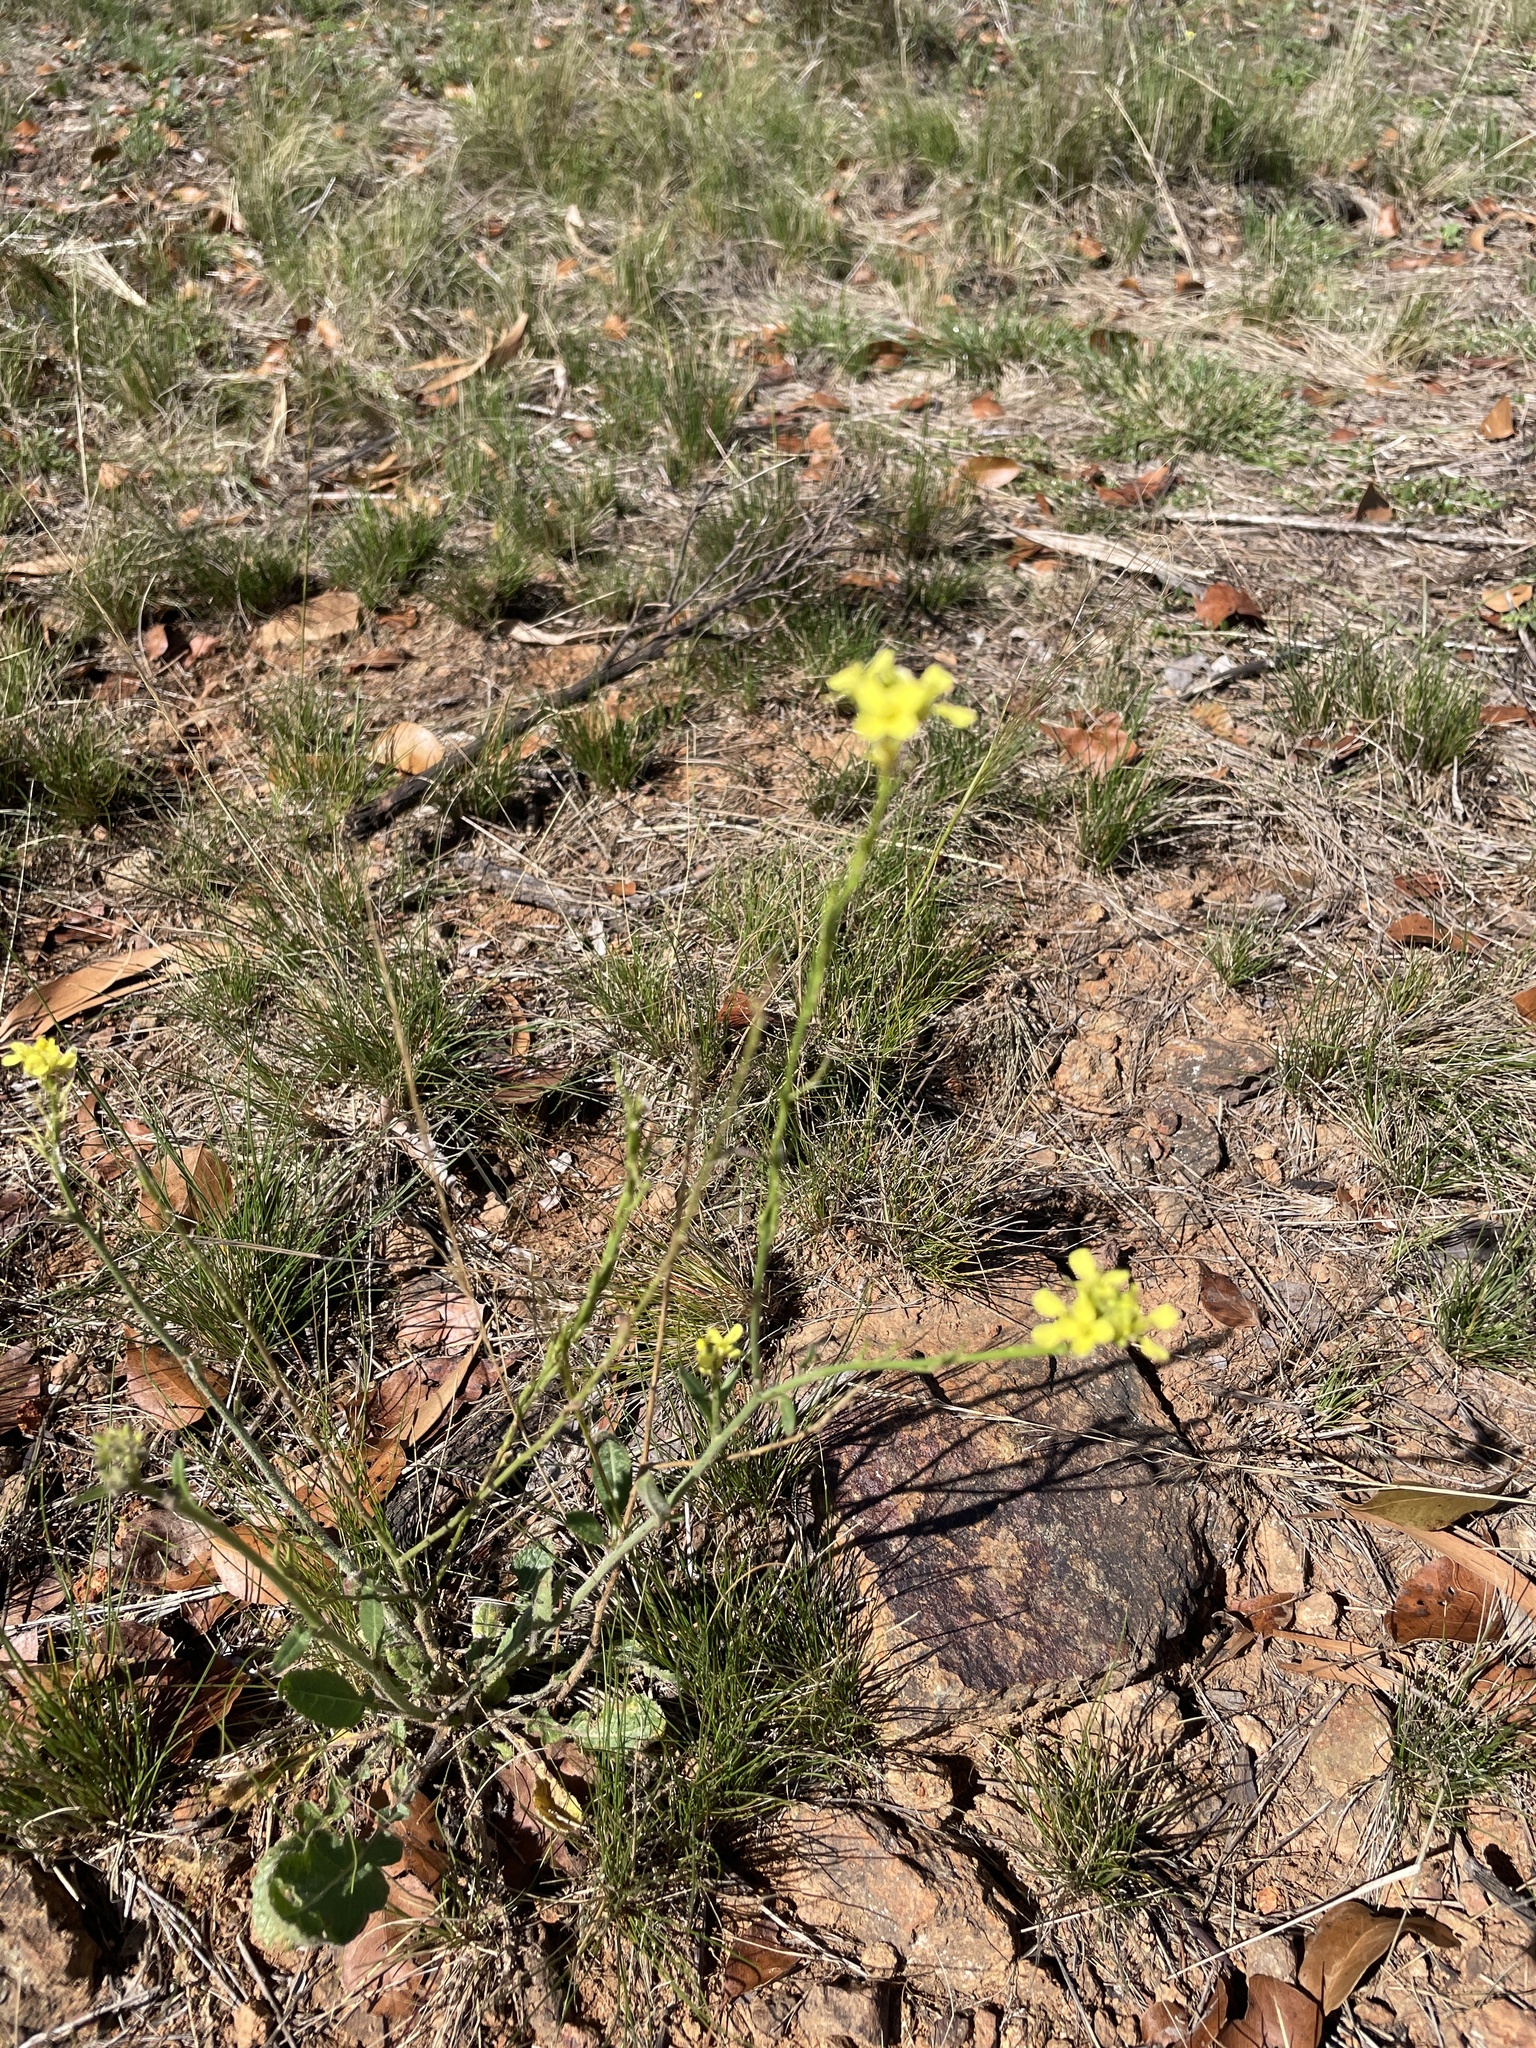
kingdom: Plantae
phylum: Tracheophyta
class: Magnoliopsida
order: Brassicales
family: Brassicaceae
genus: Hirschfeldia
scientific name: Hirschfeldia incana
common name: Hoary mustard
